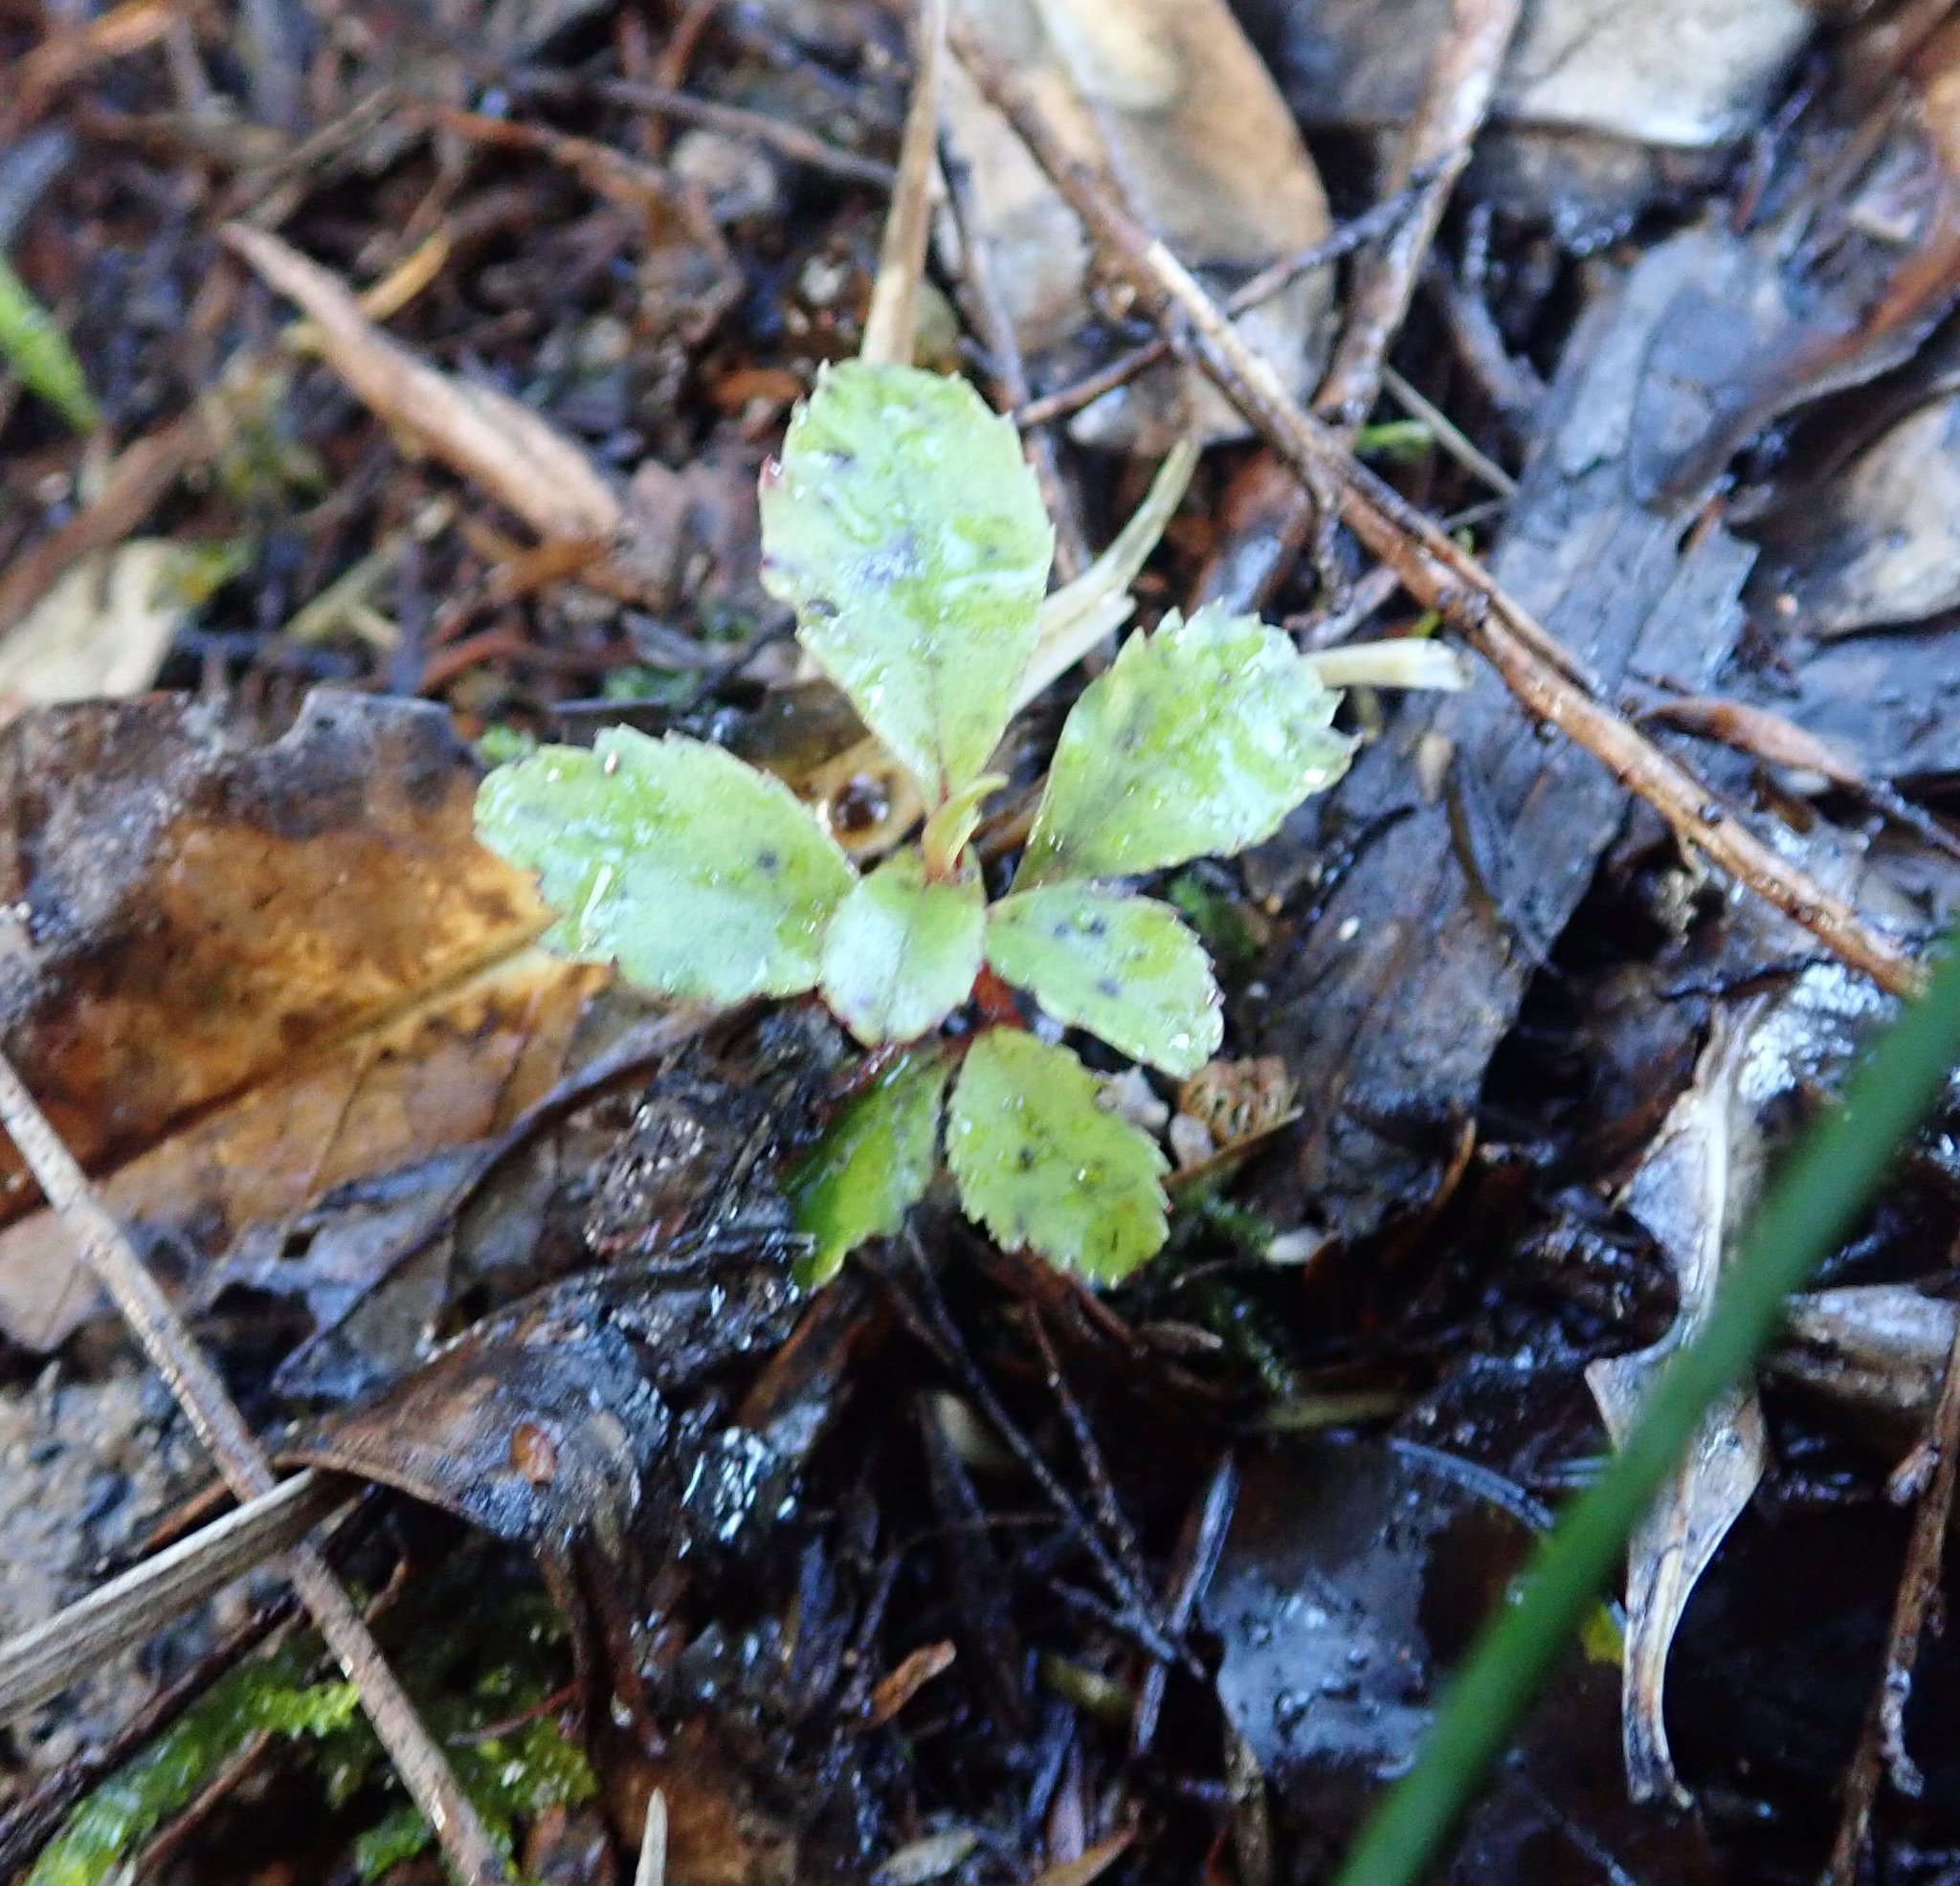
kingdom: Plantae
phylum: Tracheophyta
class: Magnoliopsida
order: Ericales
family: Primulaceae
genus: Myrsine
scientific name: Myrsine australis
